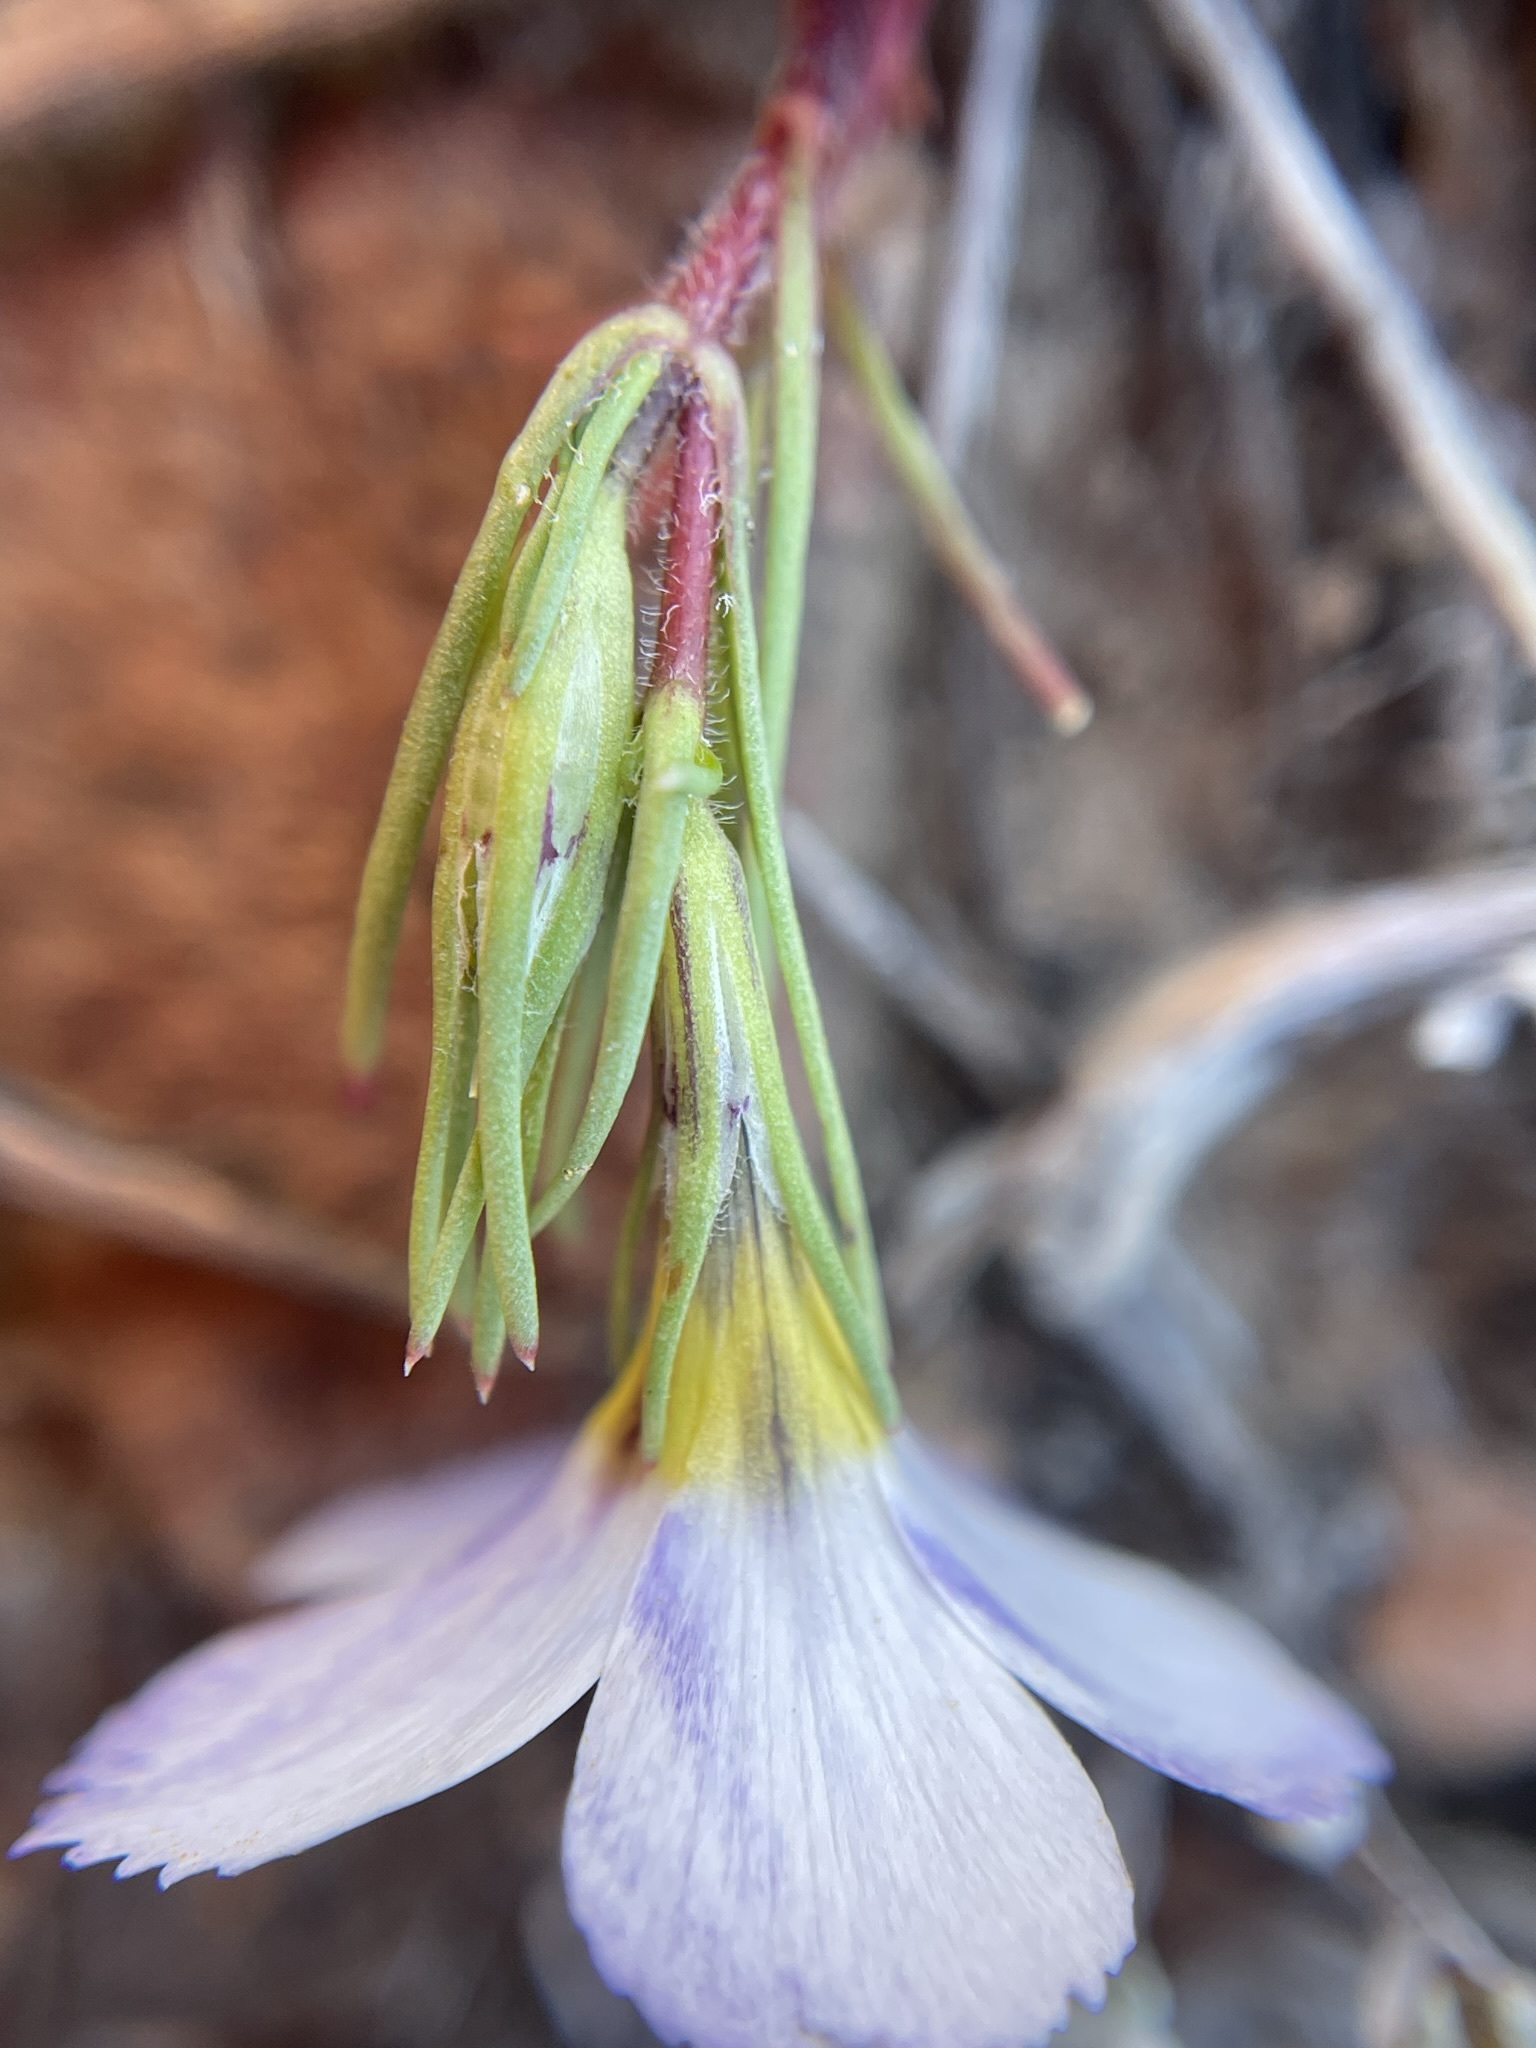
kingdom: Plantae
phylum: Tracheophyta
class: Magnoliopsida
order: Ericales
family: Polemoniaceae
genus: Linanthus
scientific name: Linanthus dianthiflorus
